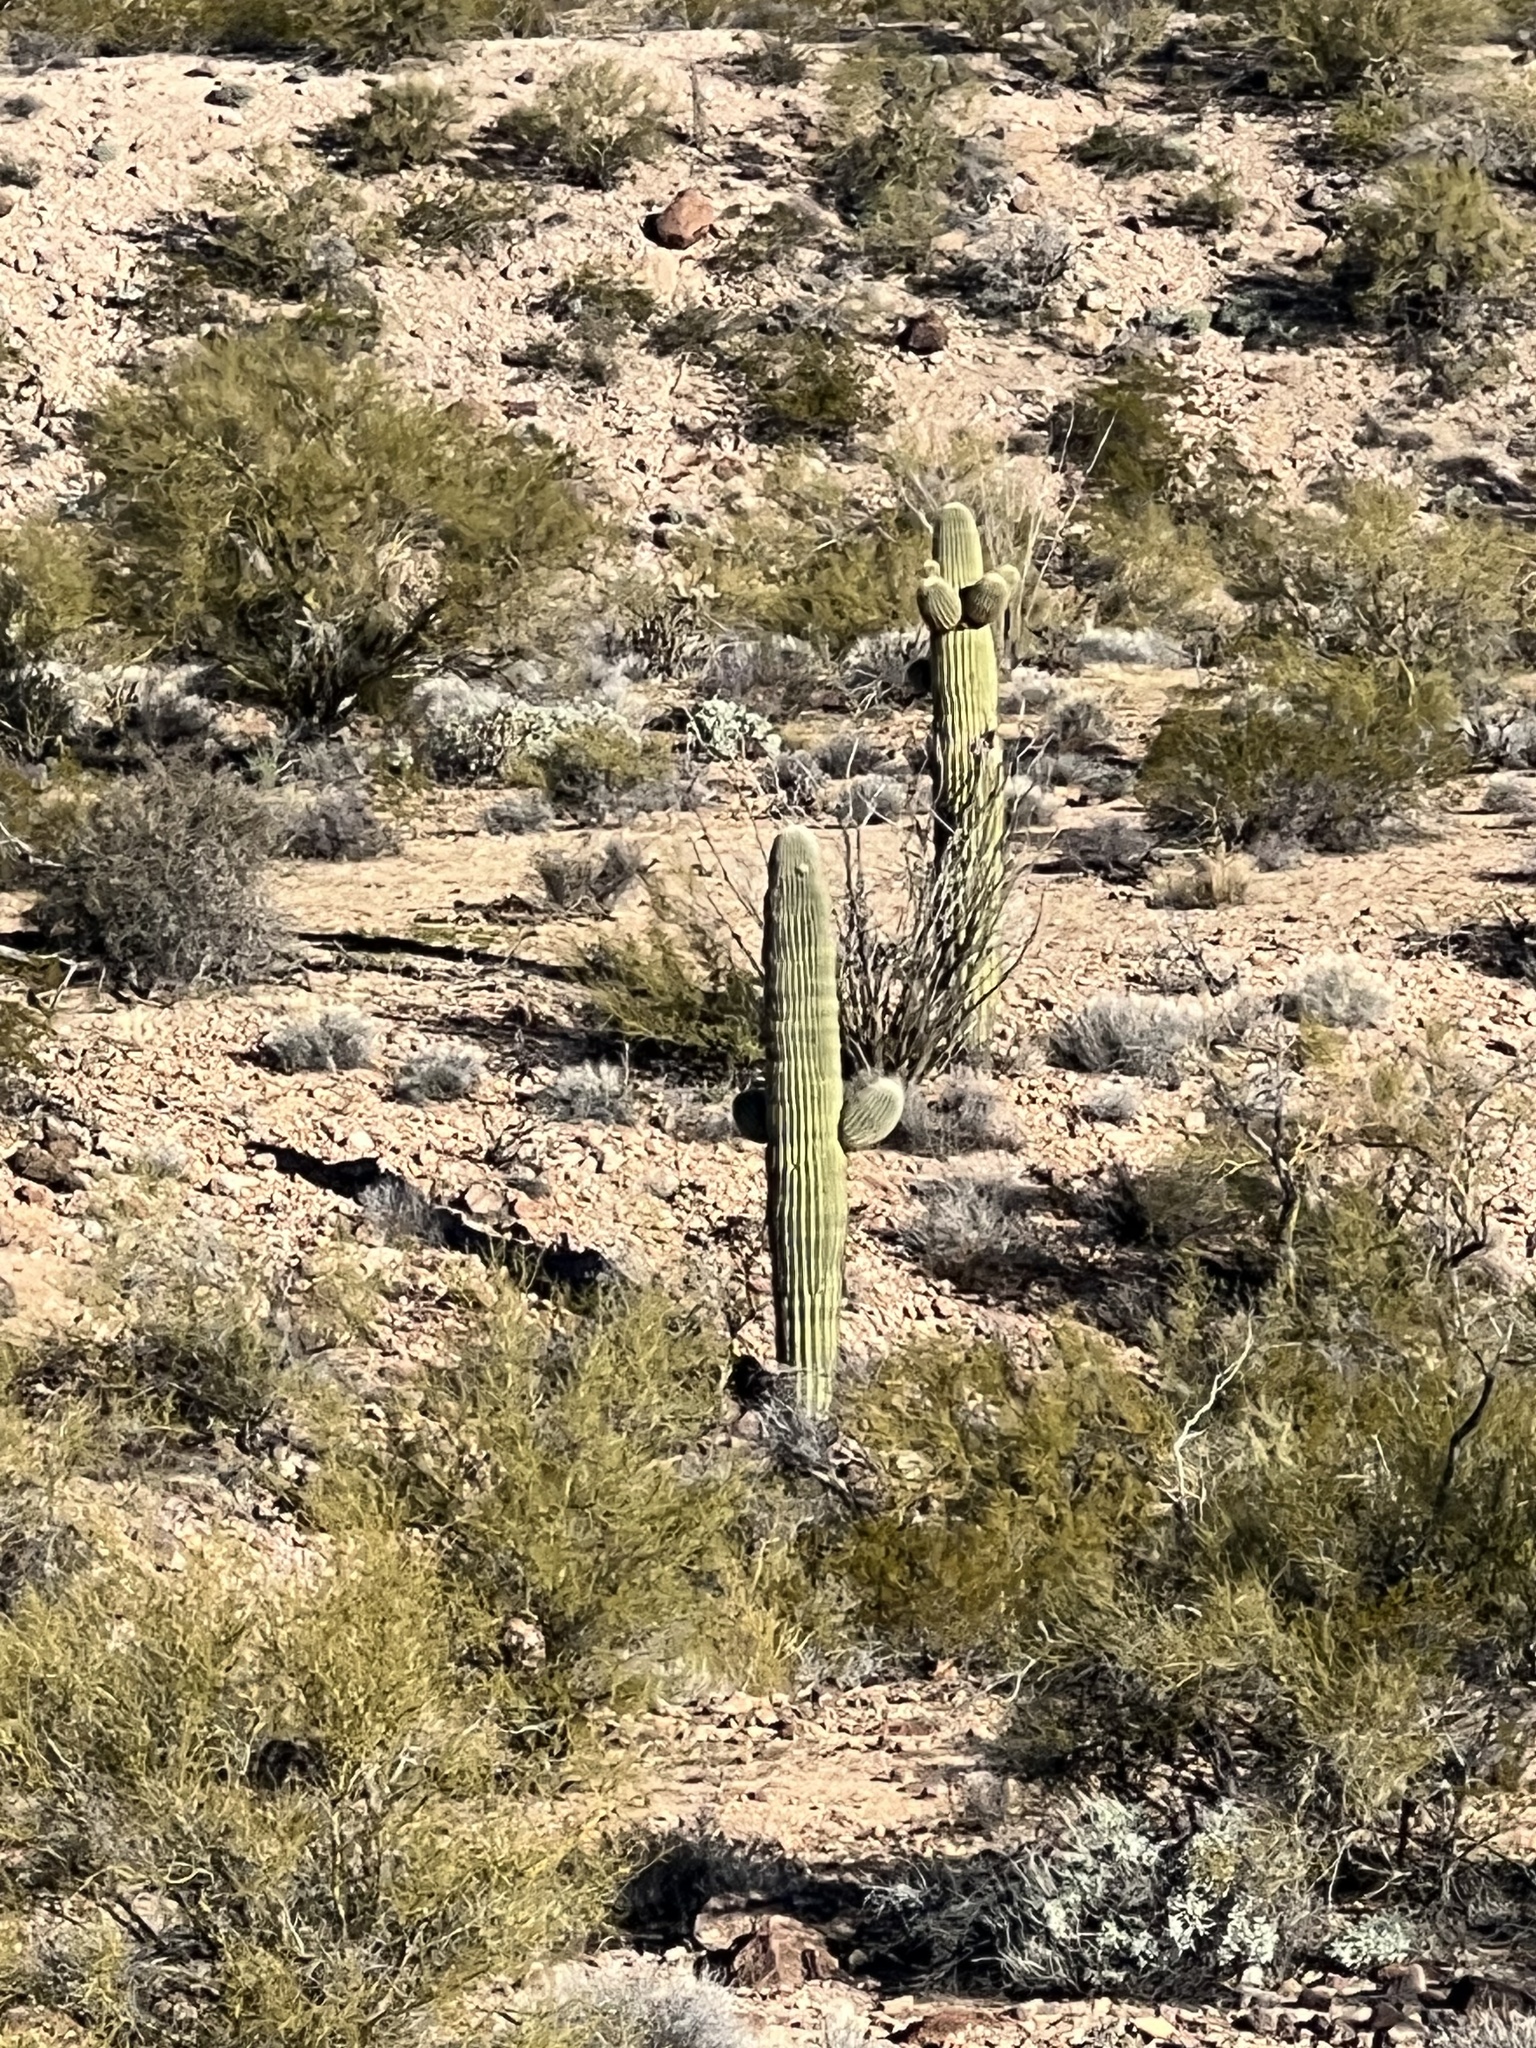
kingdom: Plantae
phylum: Tracheophyta
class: Magnoliopsida
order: Caryophyllales
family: Cactaceae
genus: Carnegiea
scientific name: Carnegiea gigantea
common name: Saguaro
